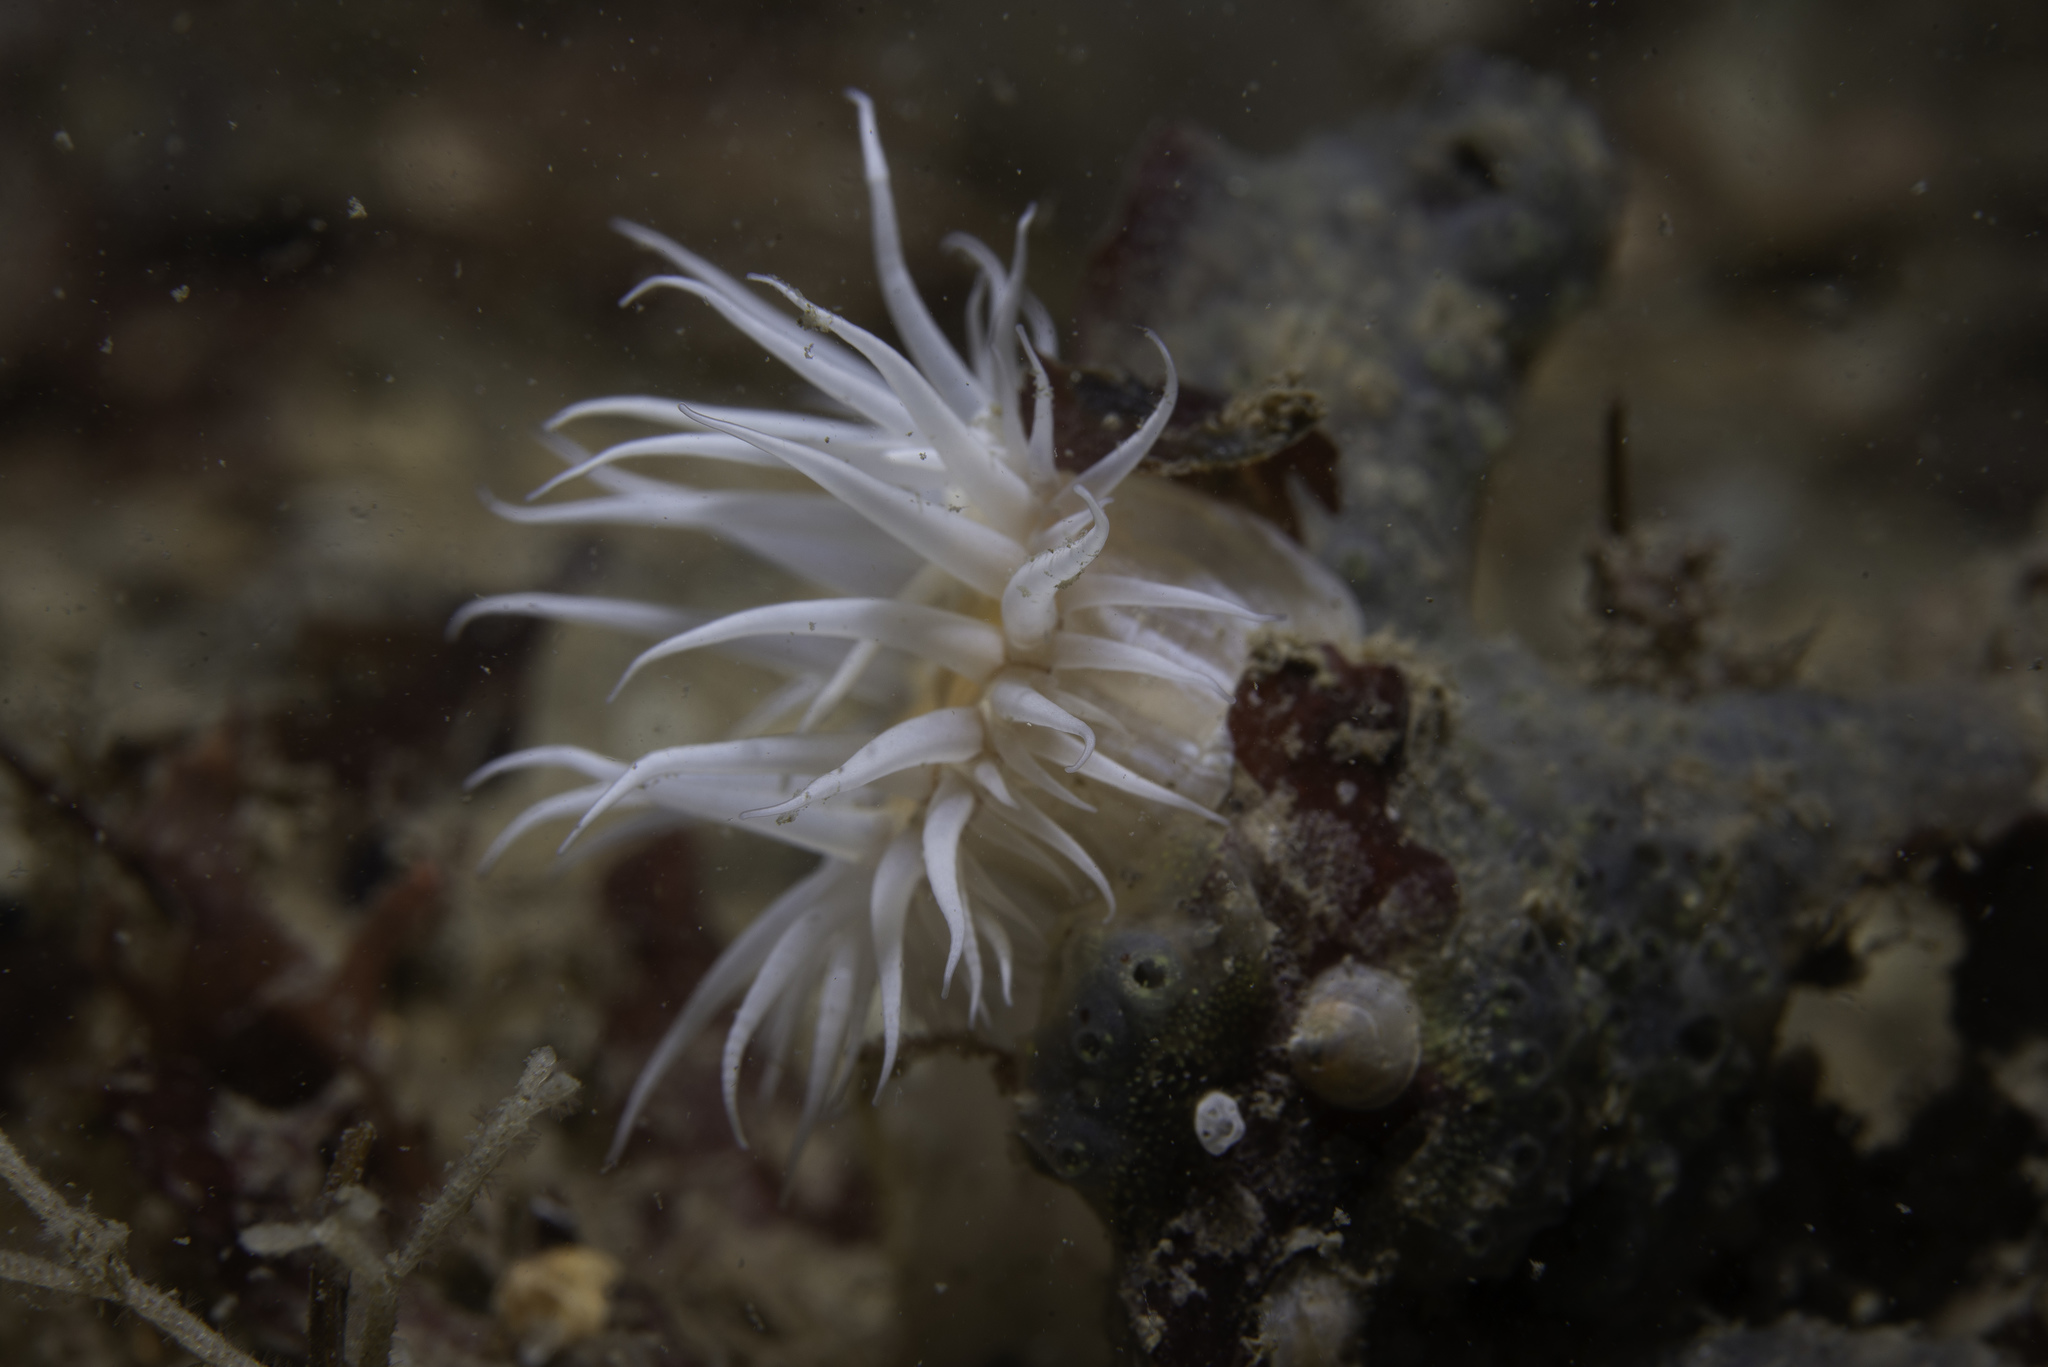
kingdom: Animalia
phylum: Cnidaria
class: Anthozoa
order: Actiniaria
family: Sagartiidae
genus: Actinothoe
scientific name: Actinothoe sphyrodeta
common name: Sandalled anemone
